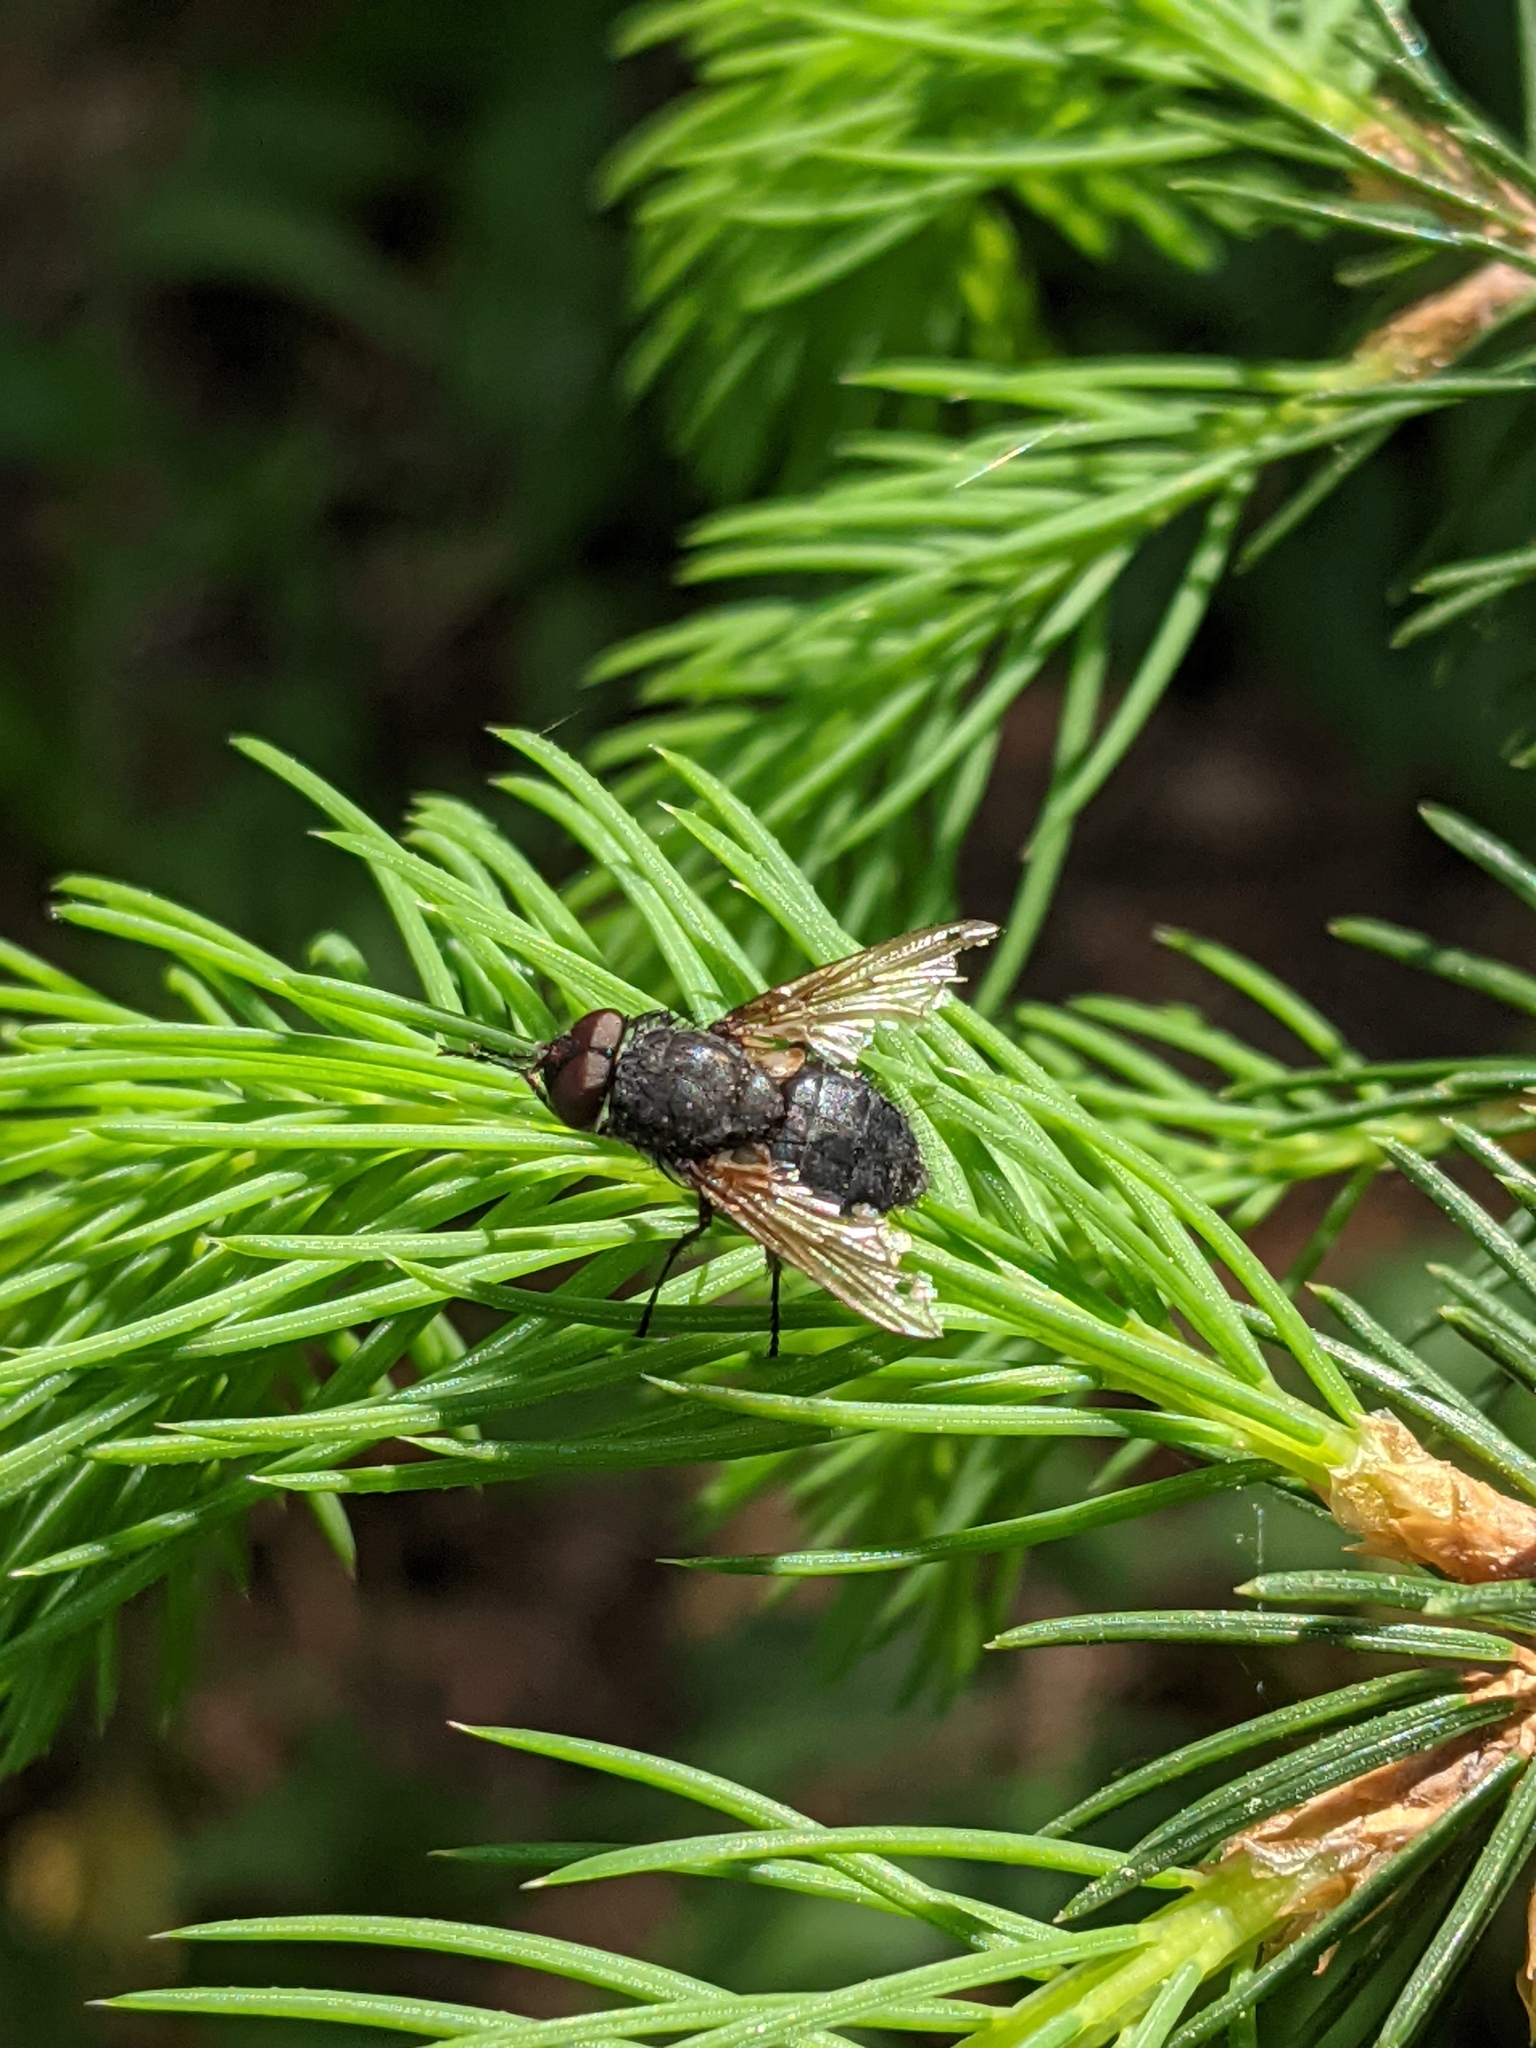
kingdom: Animalia
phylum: Arthropoda
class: Insecta
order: Diptera
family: Polleniidae
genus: Pollenia
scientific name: Pollenia
